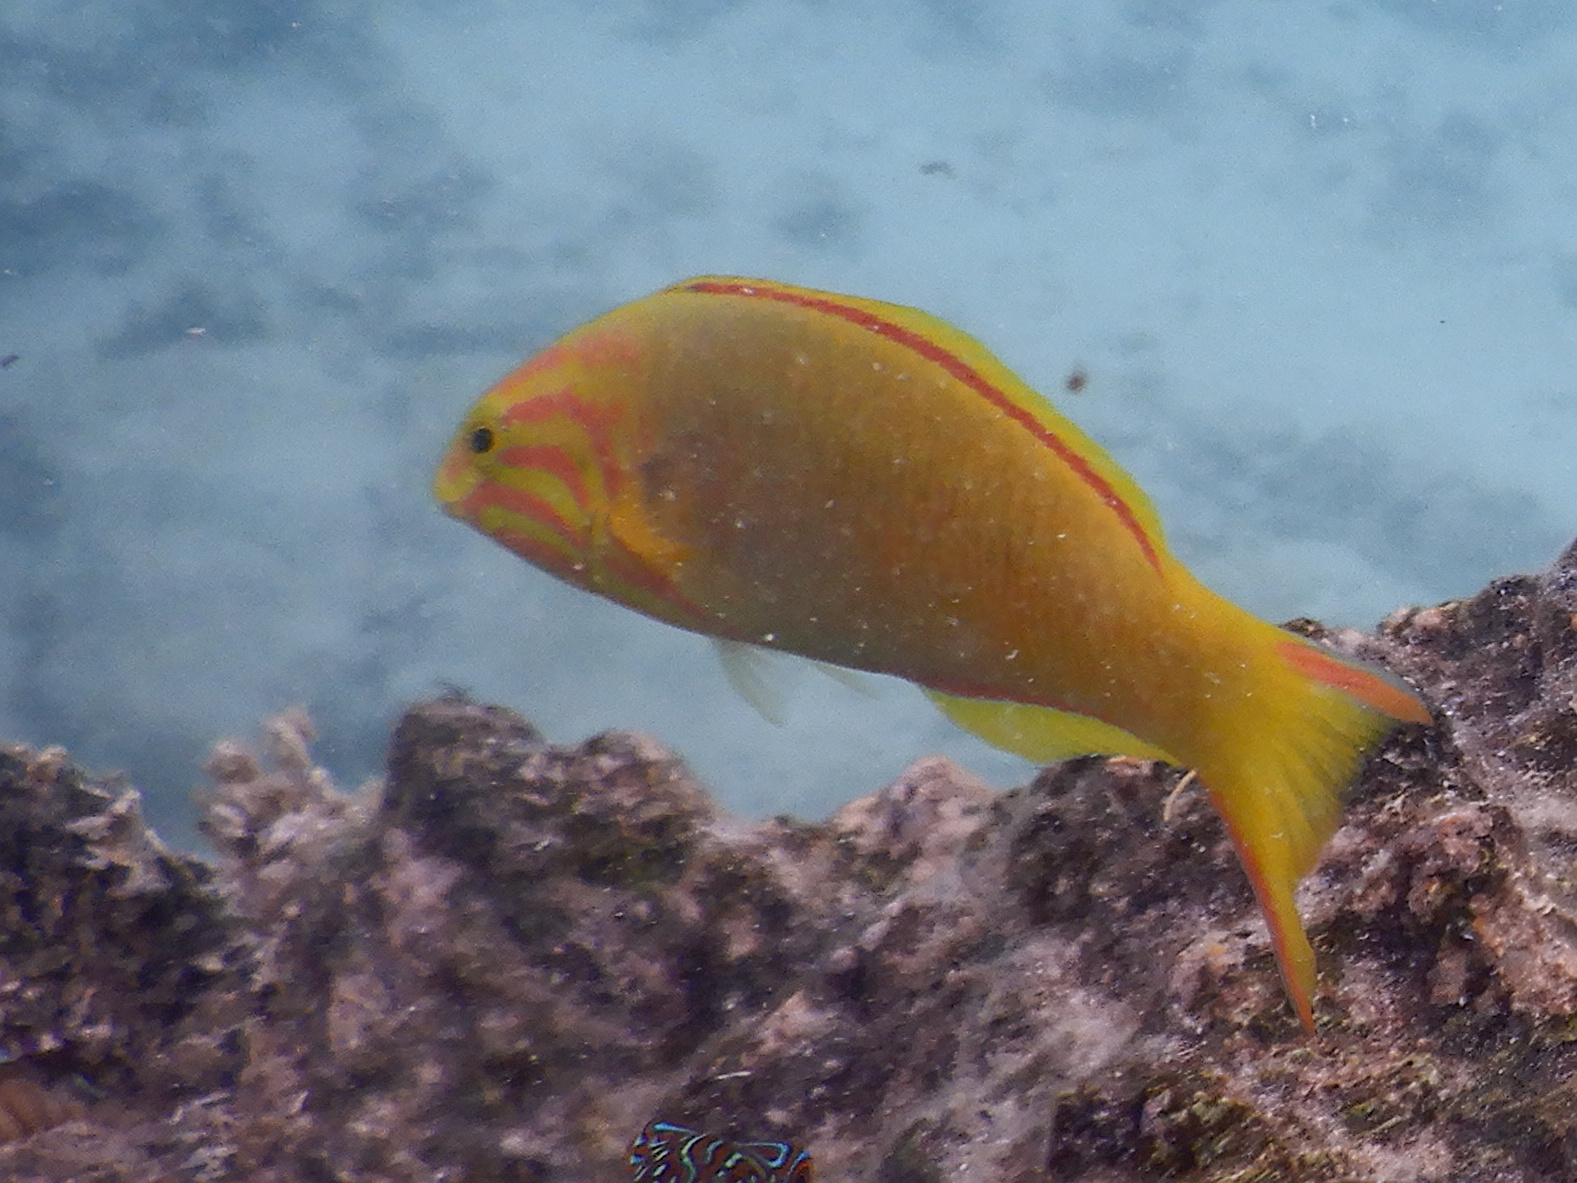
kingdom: Animalia
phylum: Chordata
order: Perciformes
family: Labridae
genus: Thalassoma
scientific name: Thalassoma lutescens
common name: Green moon wrasse
